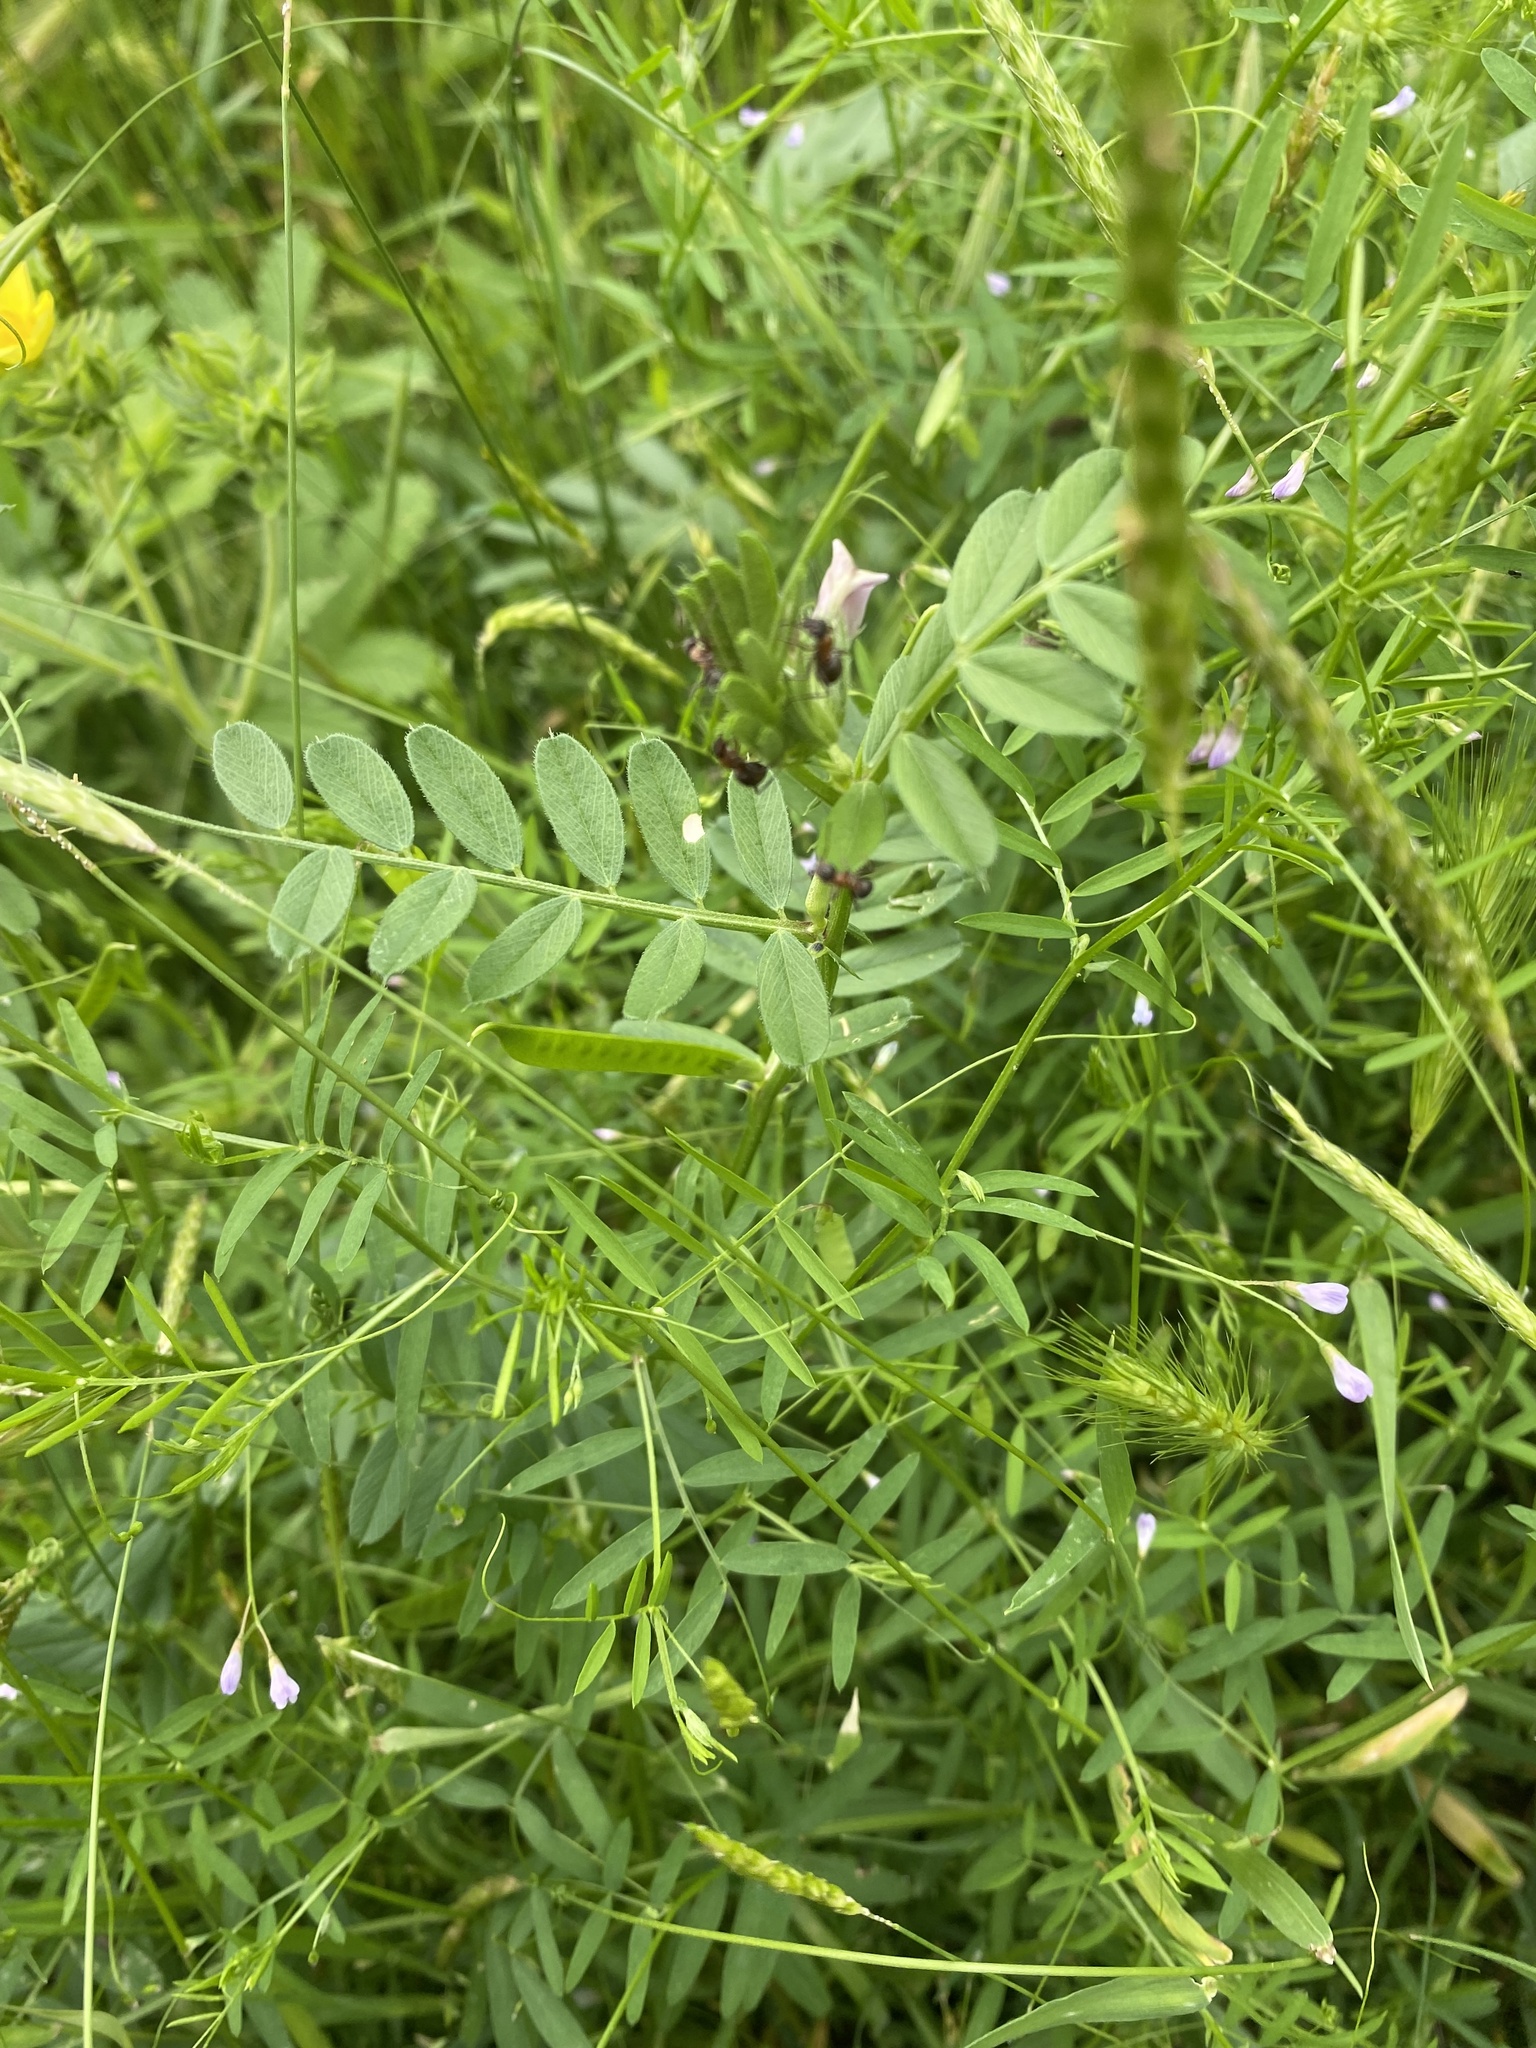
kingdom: Plantae
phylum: Tracheophyta
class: Magnoliopsida
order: Fabales
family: Fabaceae
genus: Vicia
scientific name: Vicia tetrasperma
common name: Smooth tare
